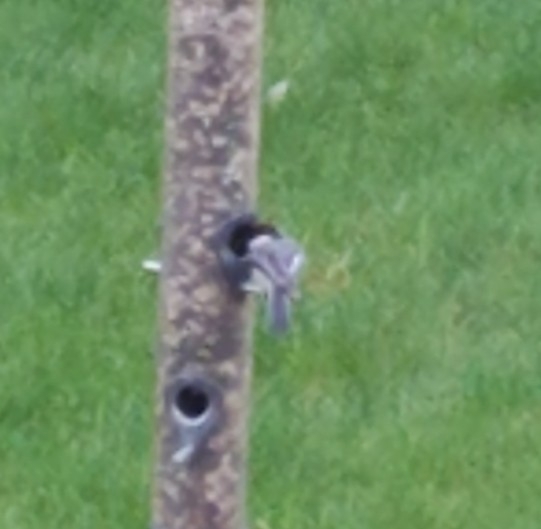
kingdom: Animalia
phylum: Chordata
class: Aves
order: Passeriformes
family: Paridae
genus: Poecile
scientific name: Poecile atricapillus
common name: Black-capped chickadee
